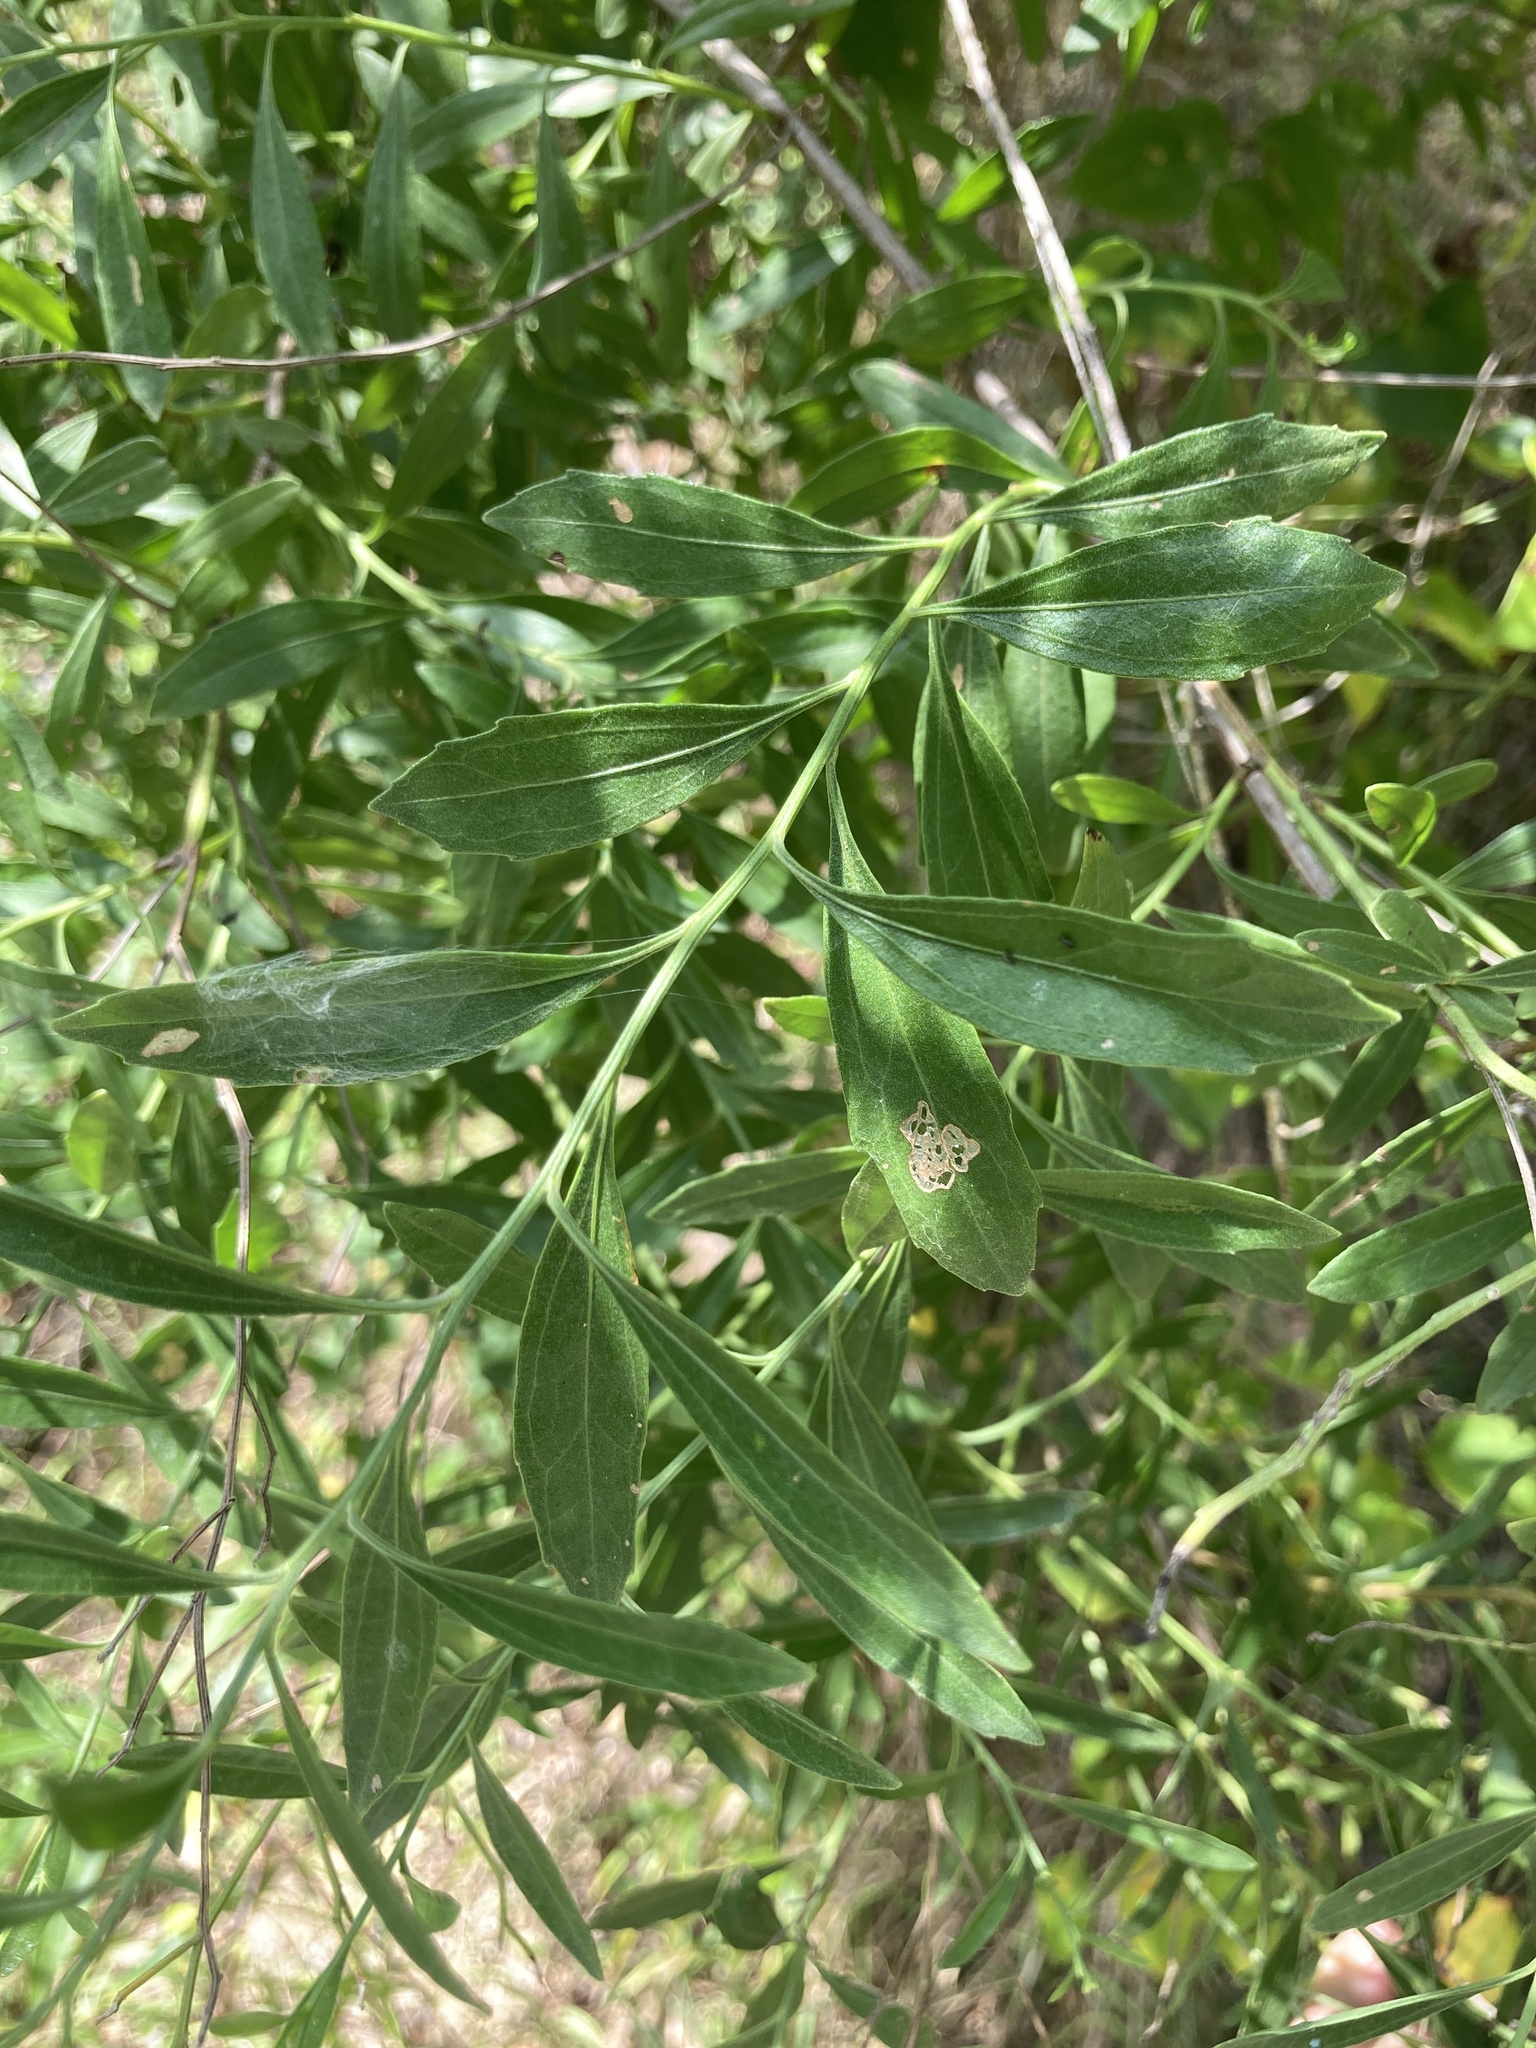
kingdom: Plantae
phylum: Tracheophyta
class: Magnoliopsida
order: Asterales
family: Asteraceae
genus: Baccharis
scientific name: Baccharis halimifolia
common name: Eastern baccharis
